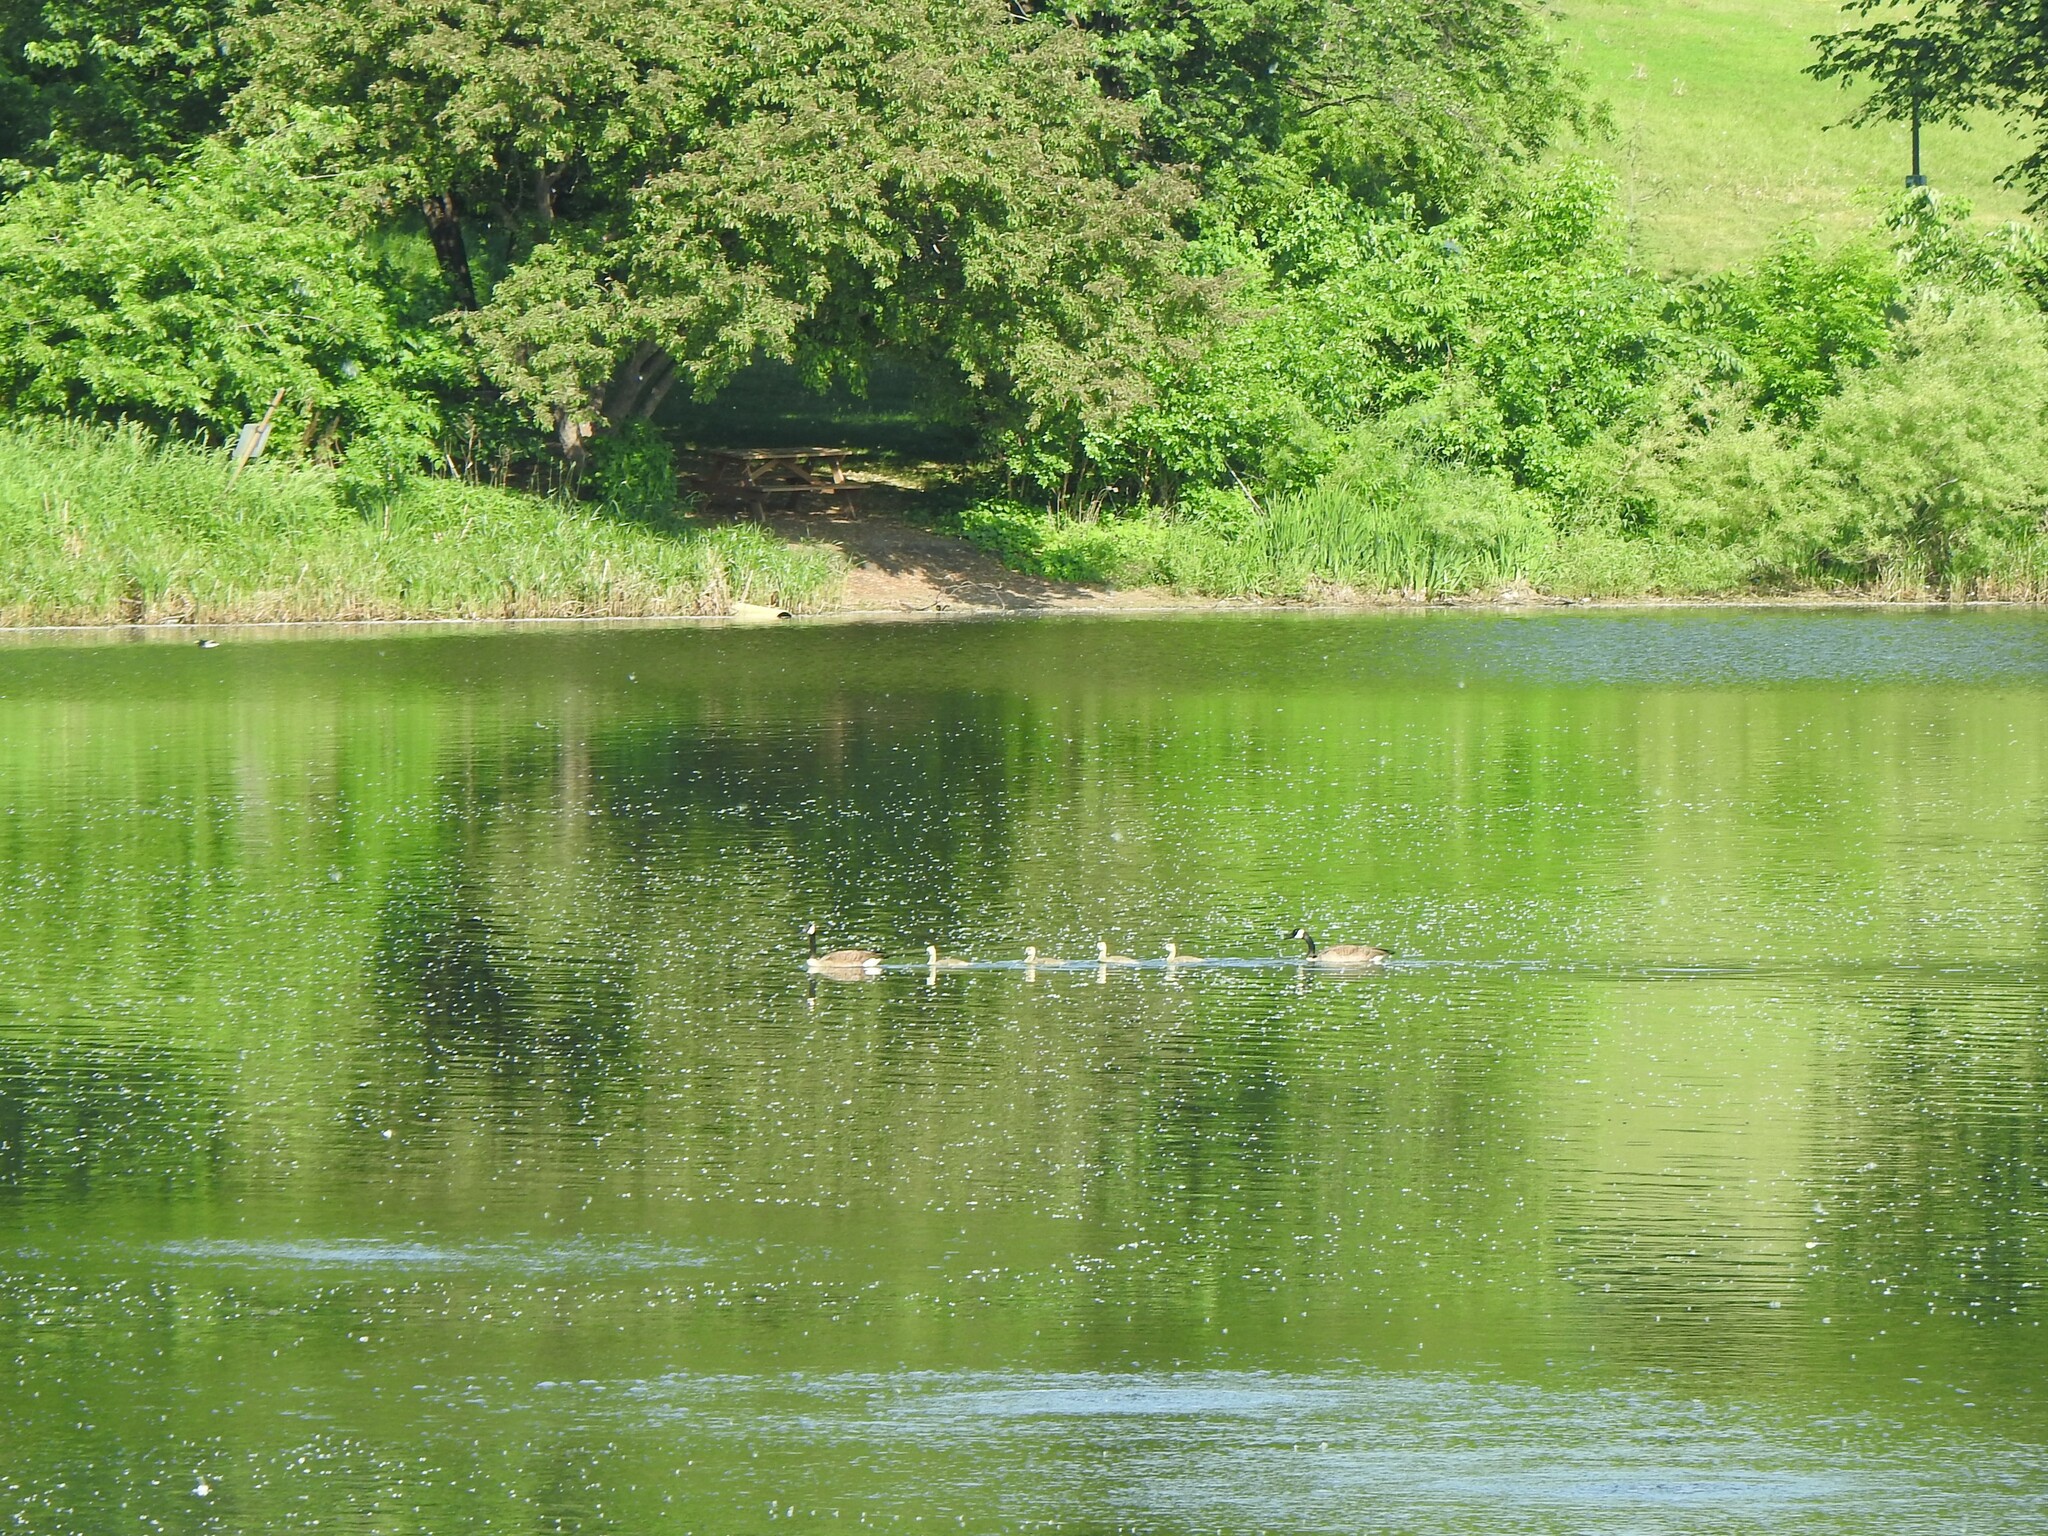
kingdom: Animalia
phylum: Chordata
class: Aves
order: Anseriformes
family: Anatidae
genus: Branta
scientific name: Branta canadensis
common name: Canada goose
